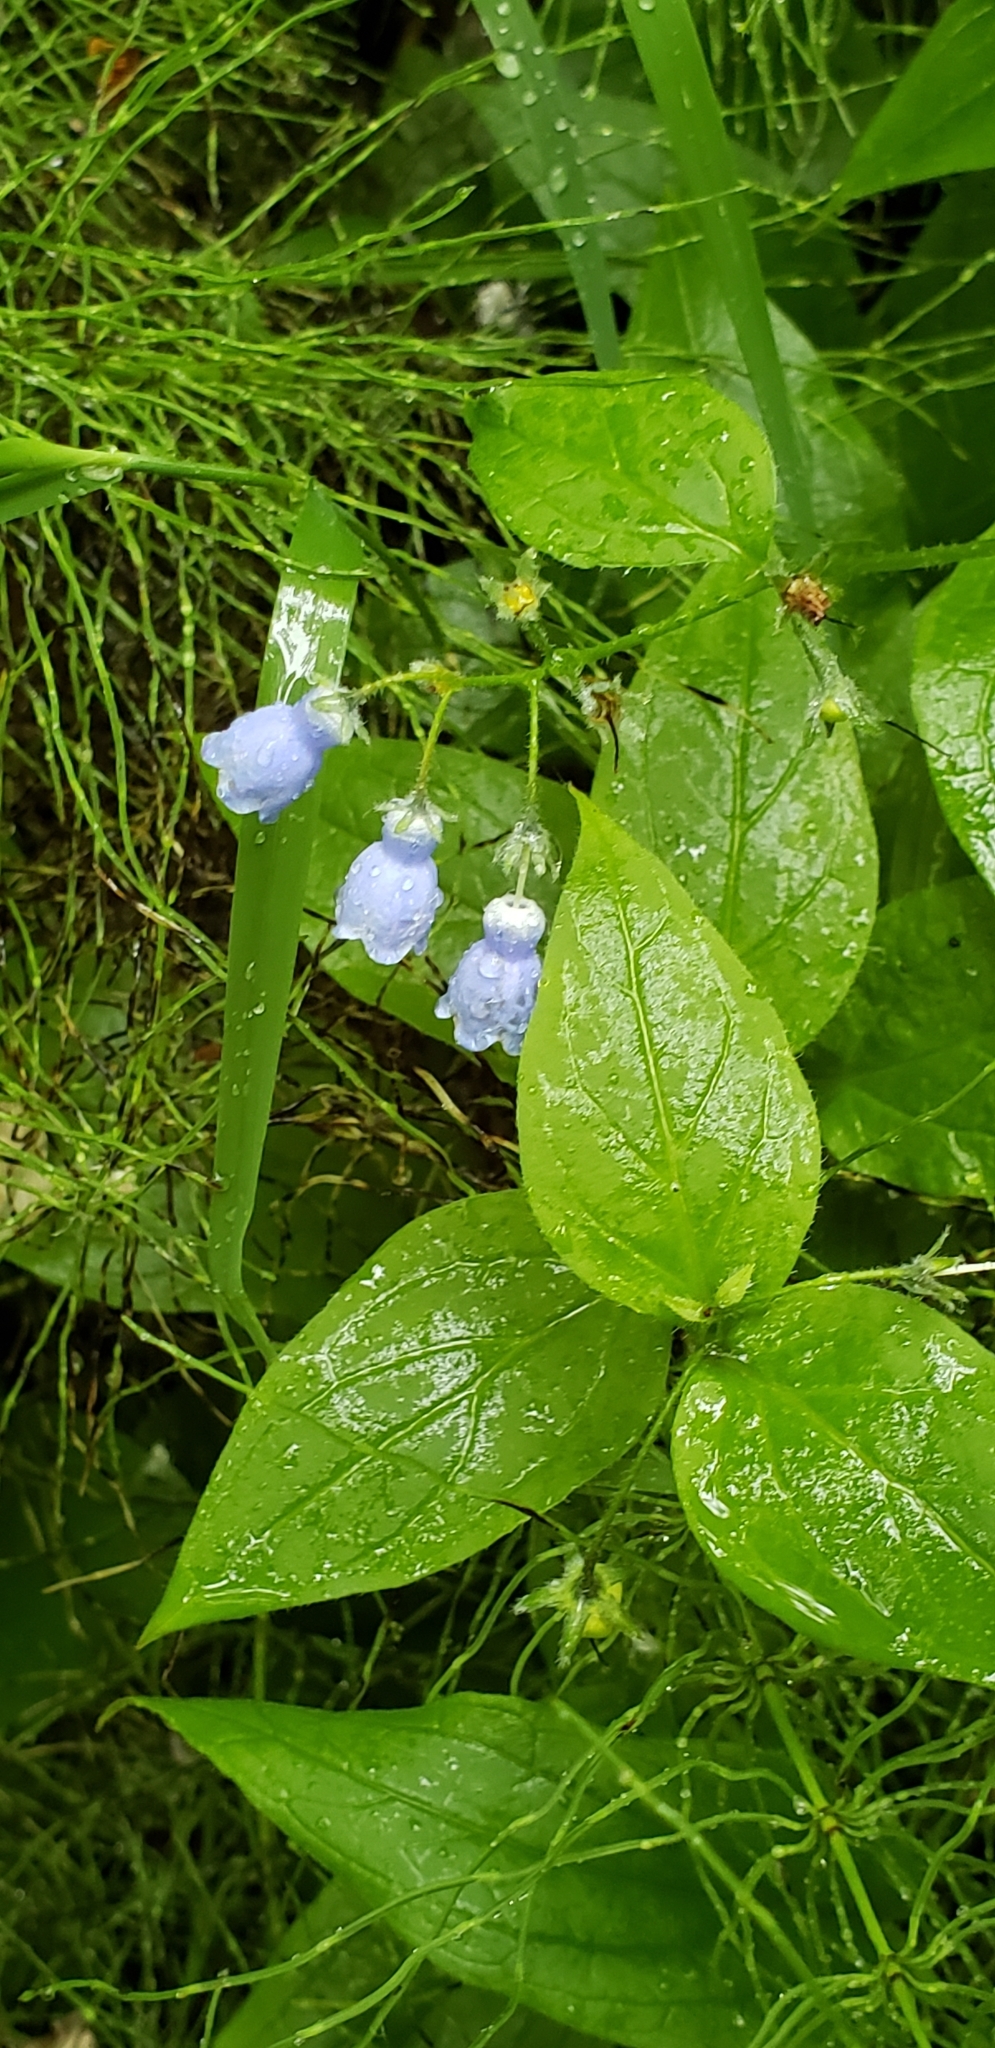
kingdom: Plantae
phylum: Tracheophyta
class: Magnoliopsida
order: Boraginales
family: Boraginaceae
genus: Mertensia
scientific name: Mertensia paniculata
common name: Panicled bluebells
